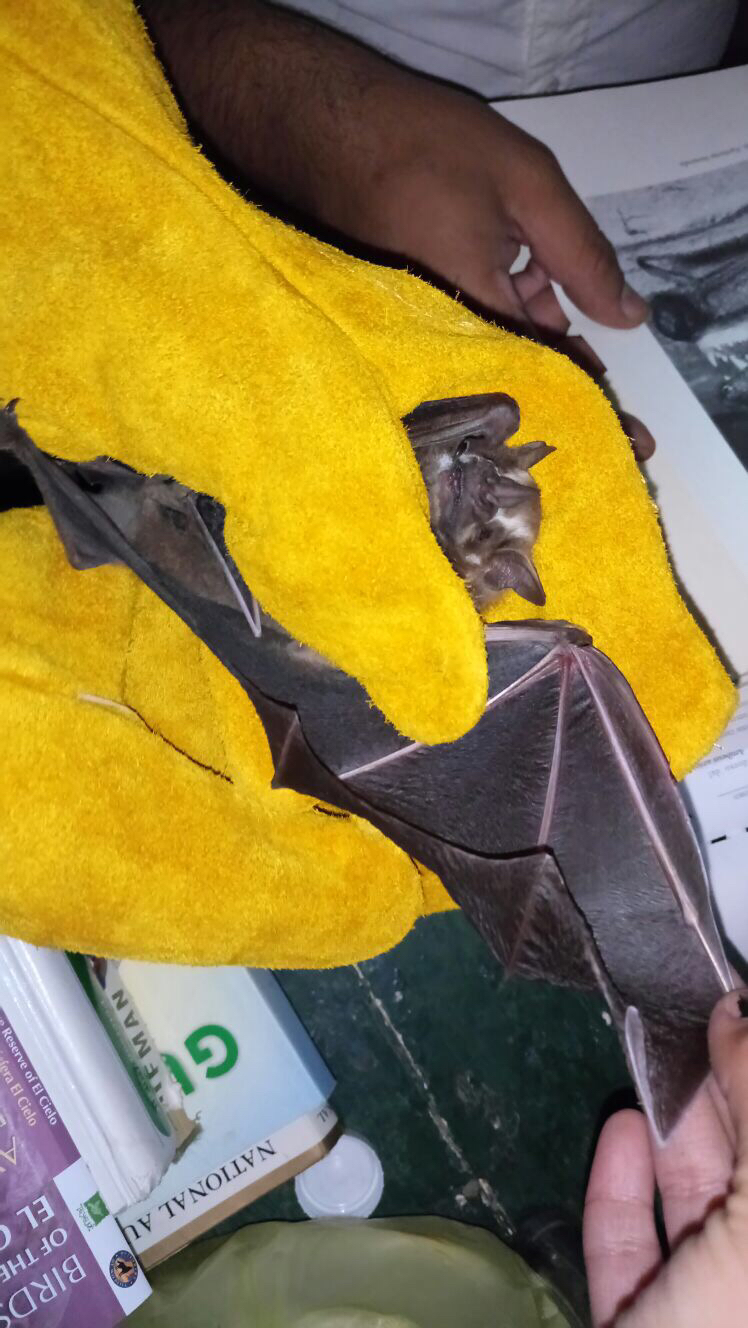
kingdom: Animalia
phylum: Chordata
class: Mammalia
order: Chiroptera
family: Phyllostomidae
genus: Artibeus
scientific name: Artibeus jamaicensis
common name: Jamaican fruit-eating bat
